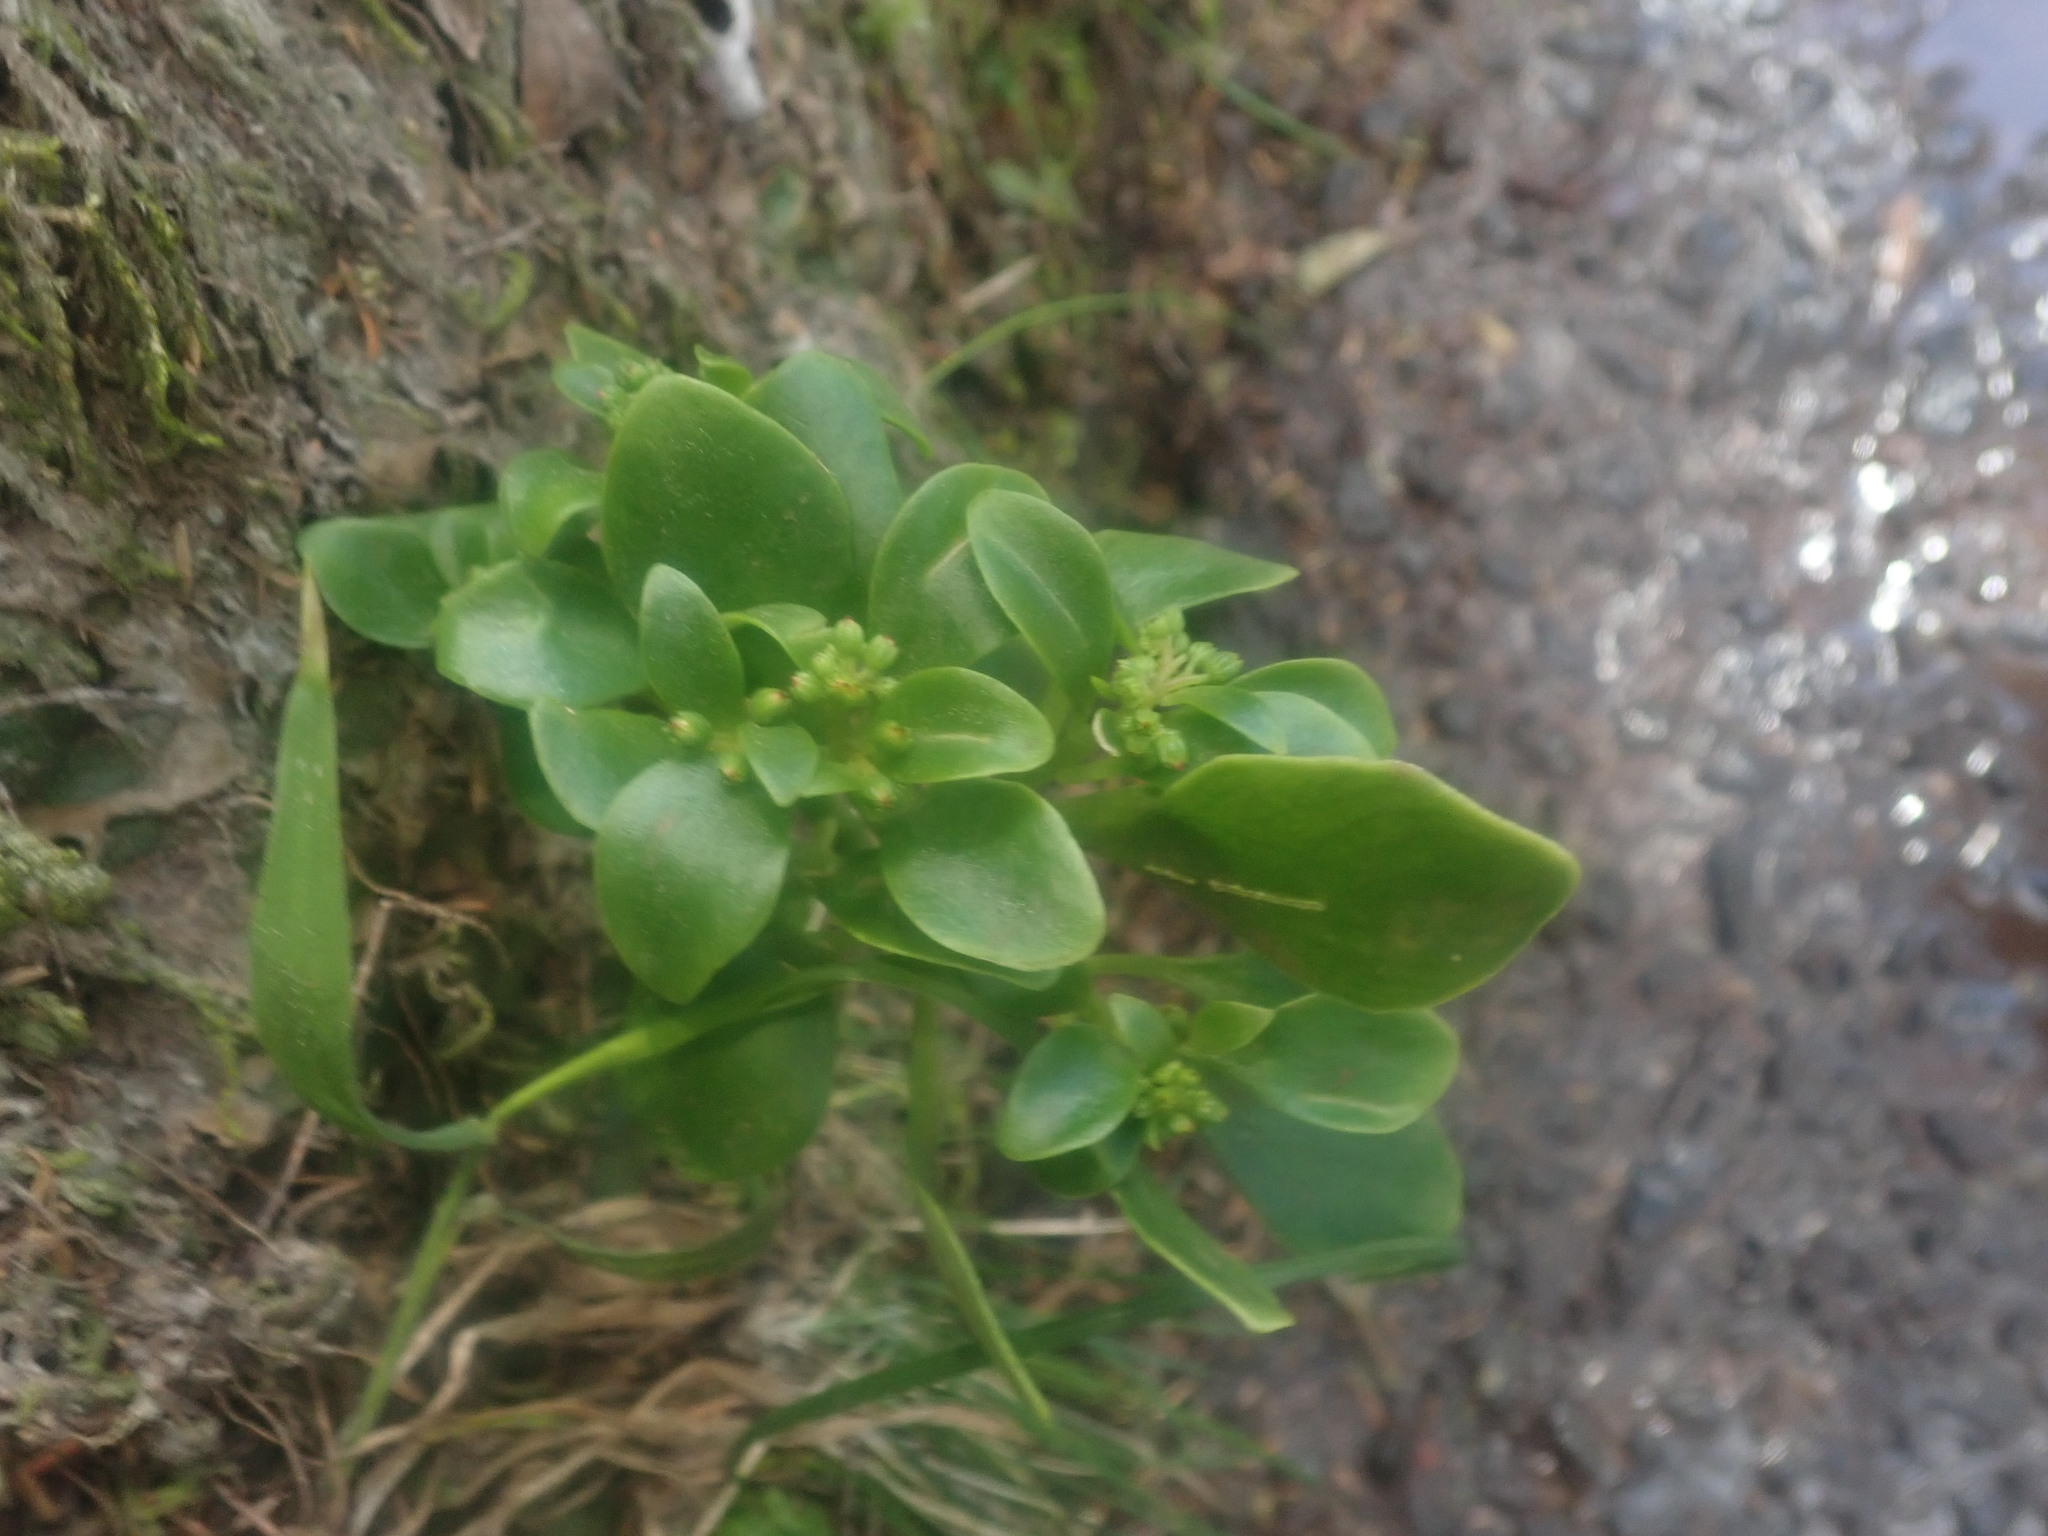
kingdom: Plantae
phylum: Tracheophyta
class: Magnoliopsida
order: Saxifragales
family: Crassulaceae
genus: Aichryson
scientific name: Aichryson divaricatum
